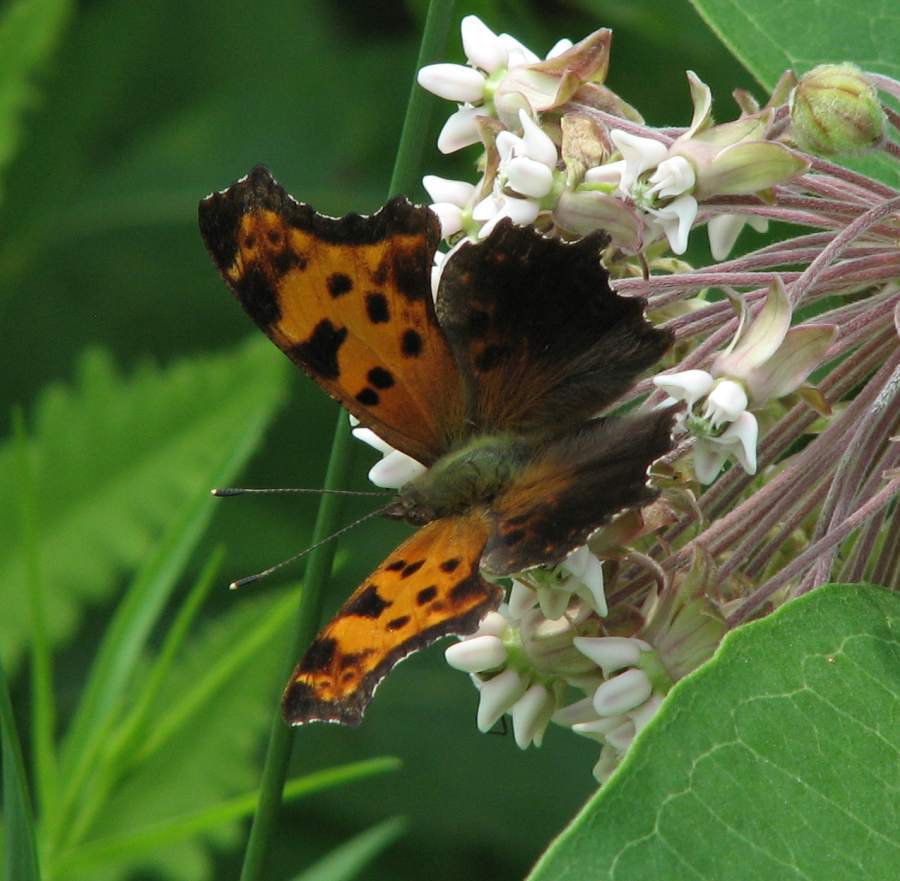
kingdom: Animalia
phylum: Arthropoda
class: Insecta
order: Lepidoptera
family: Nymphalidae
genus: Polygonia
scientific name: Polygonia comma
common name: Eastern comma
